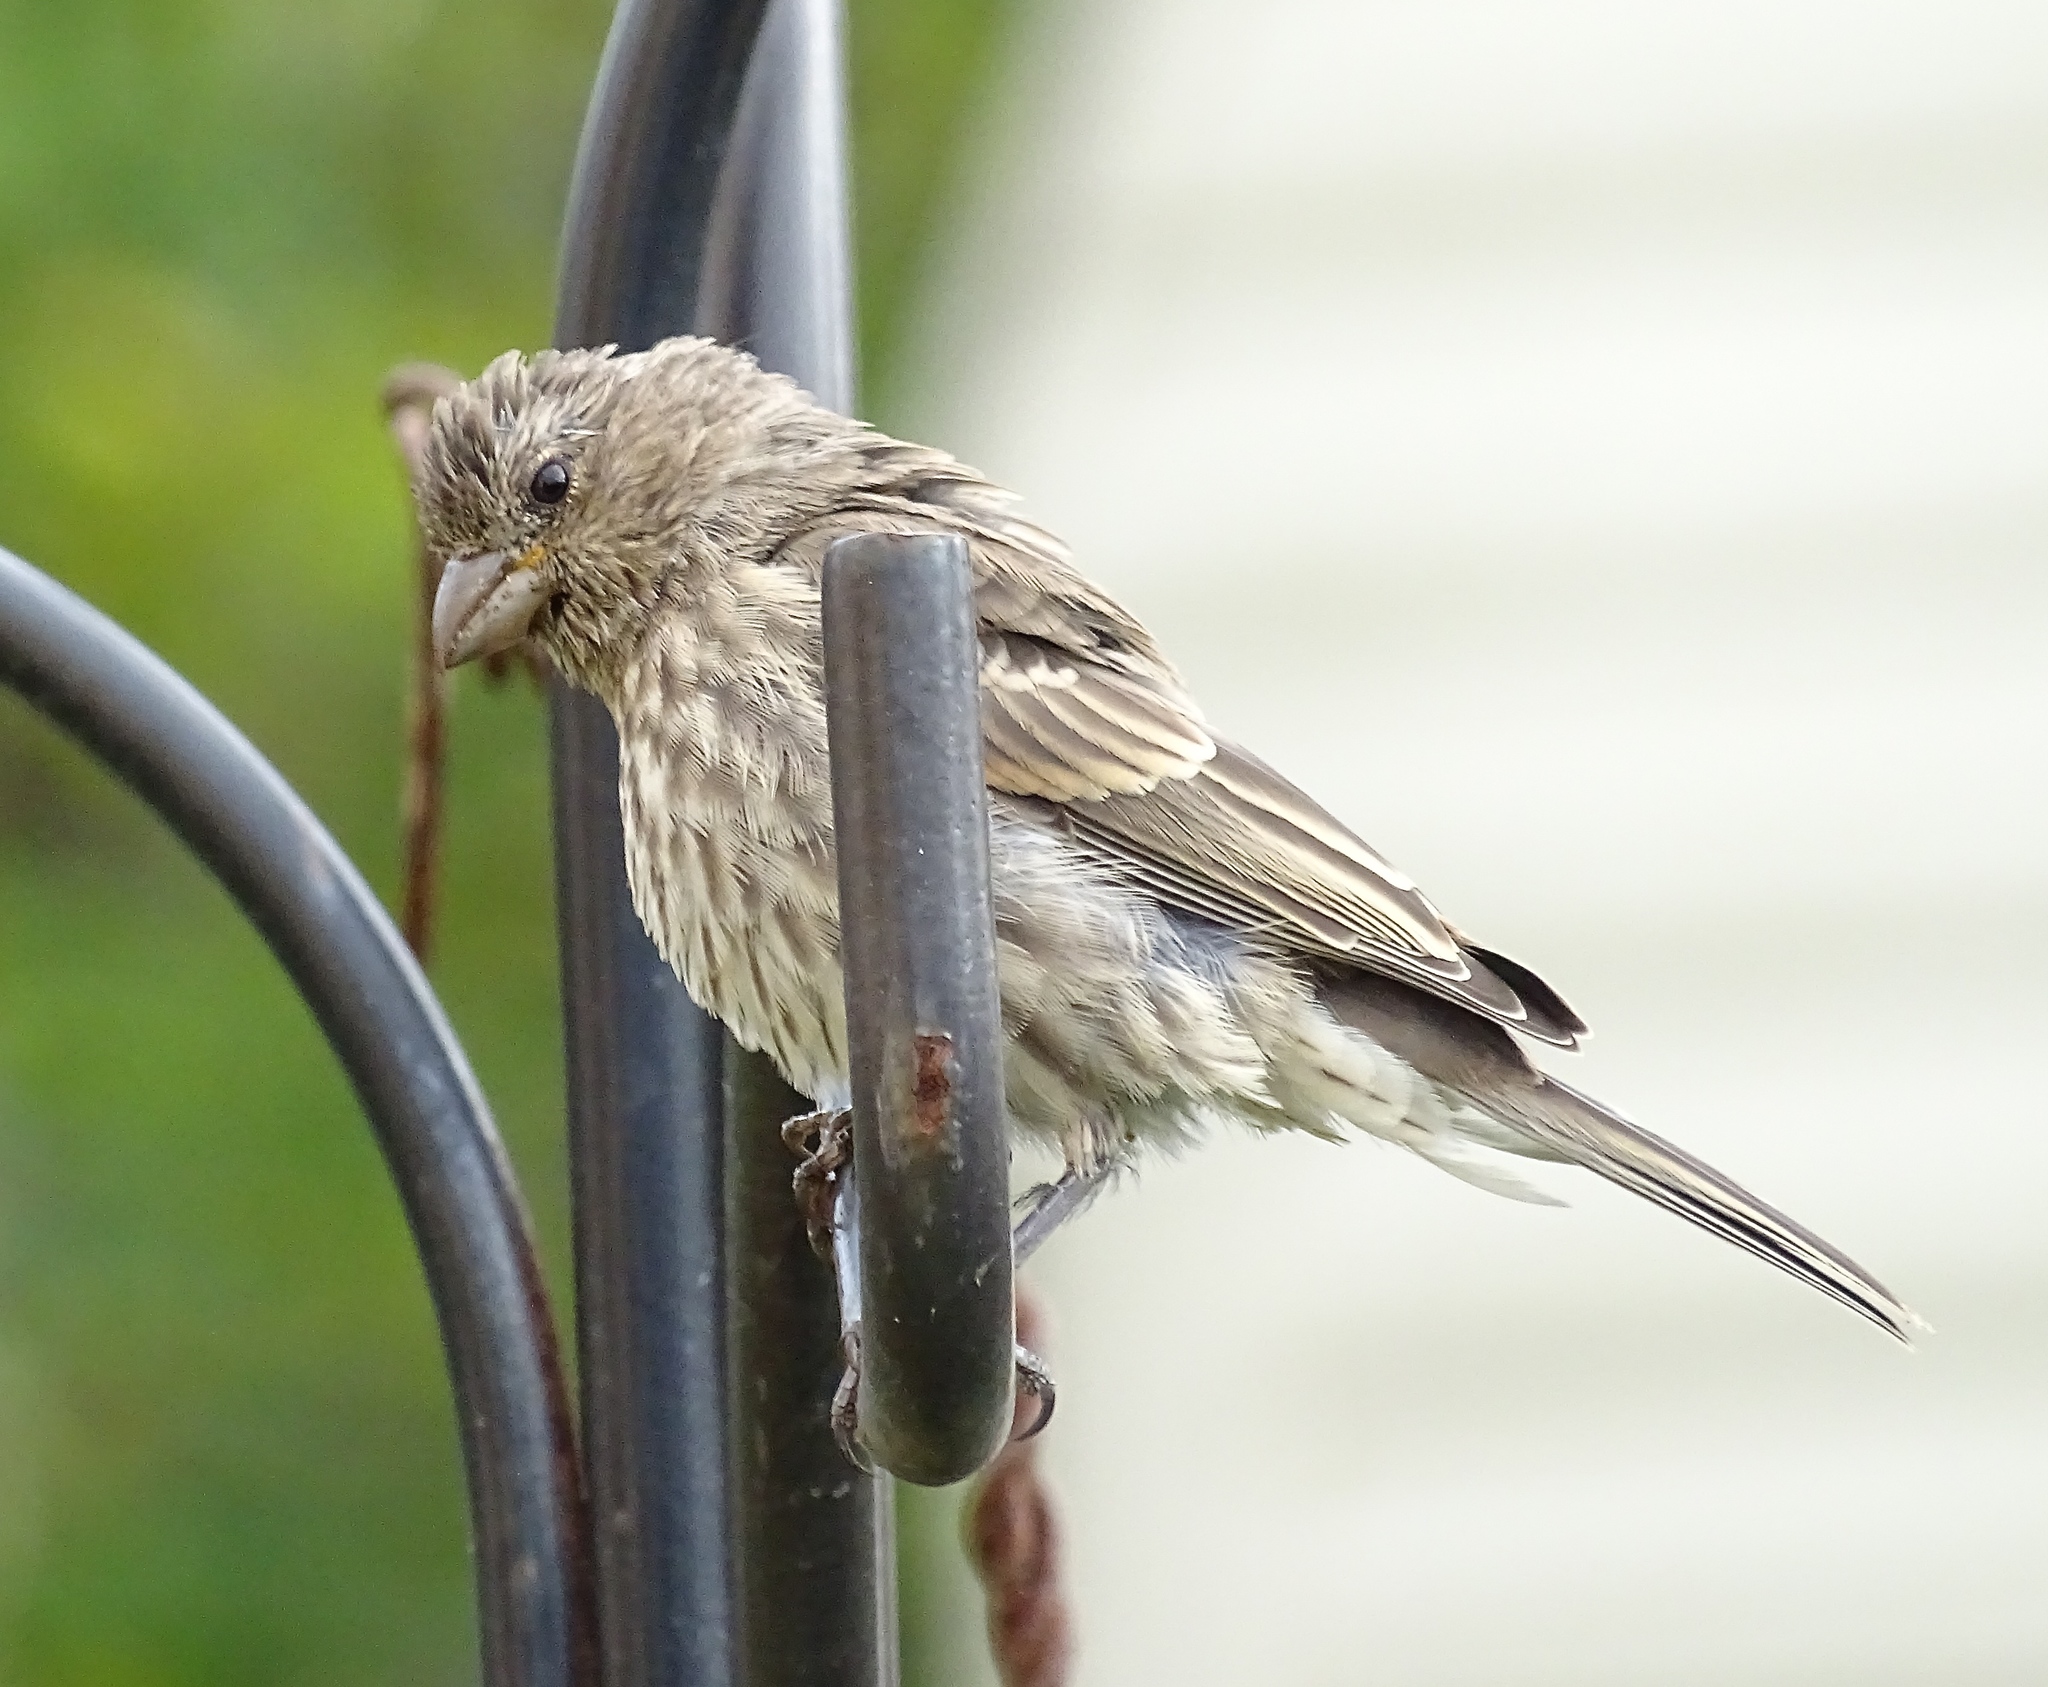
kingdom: Animalia
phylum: Chordata
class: Aves
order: Passeriformes
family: Fringillidae
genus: Haemorhous
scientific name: Haemorhous mexicanus
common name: House finch
